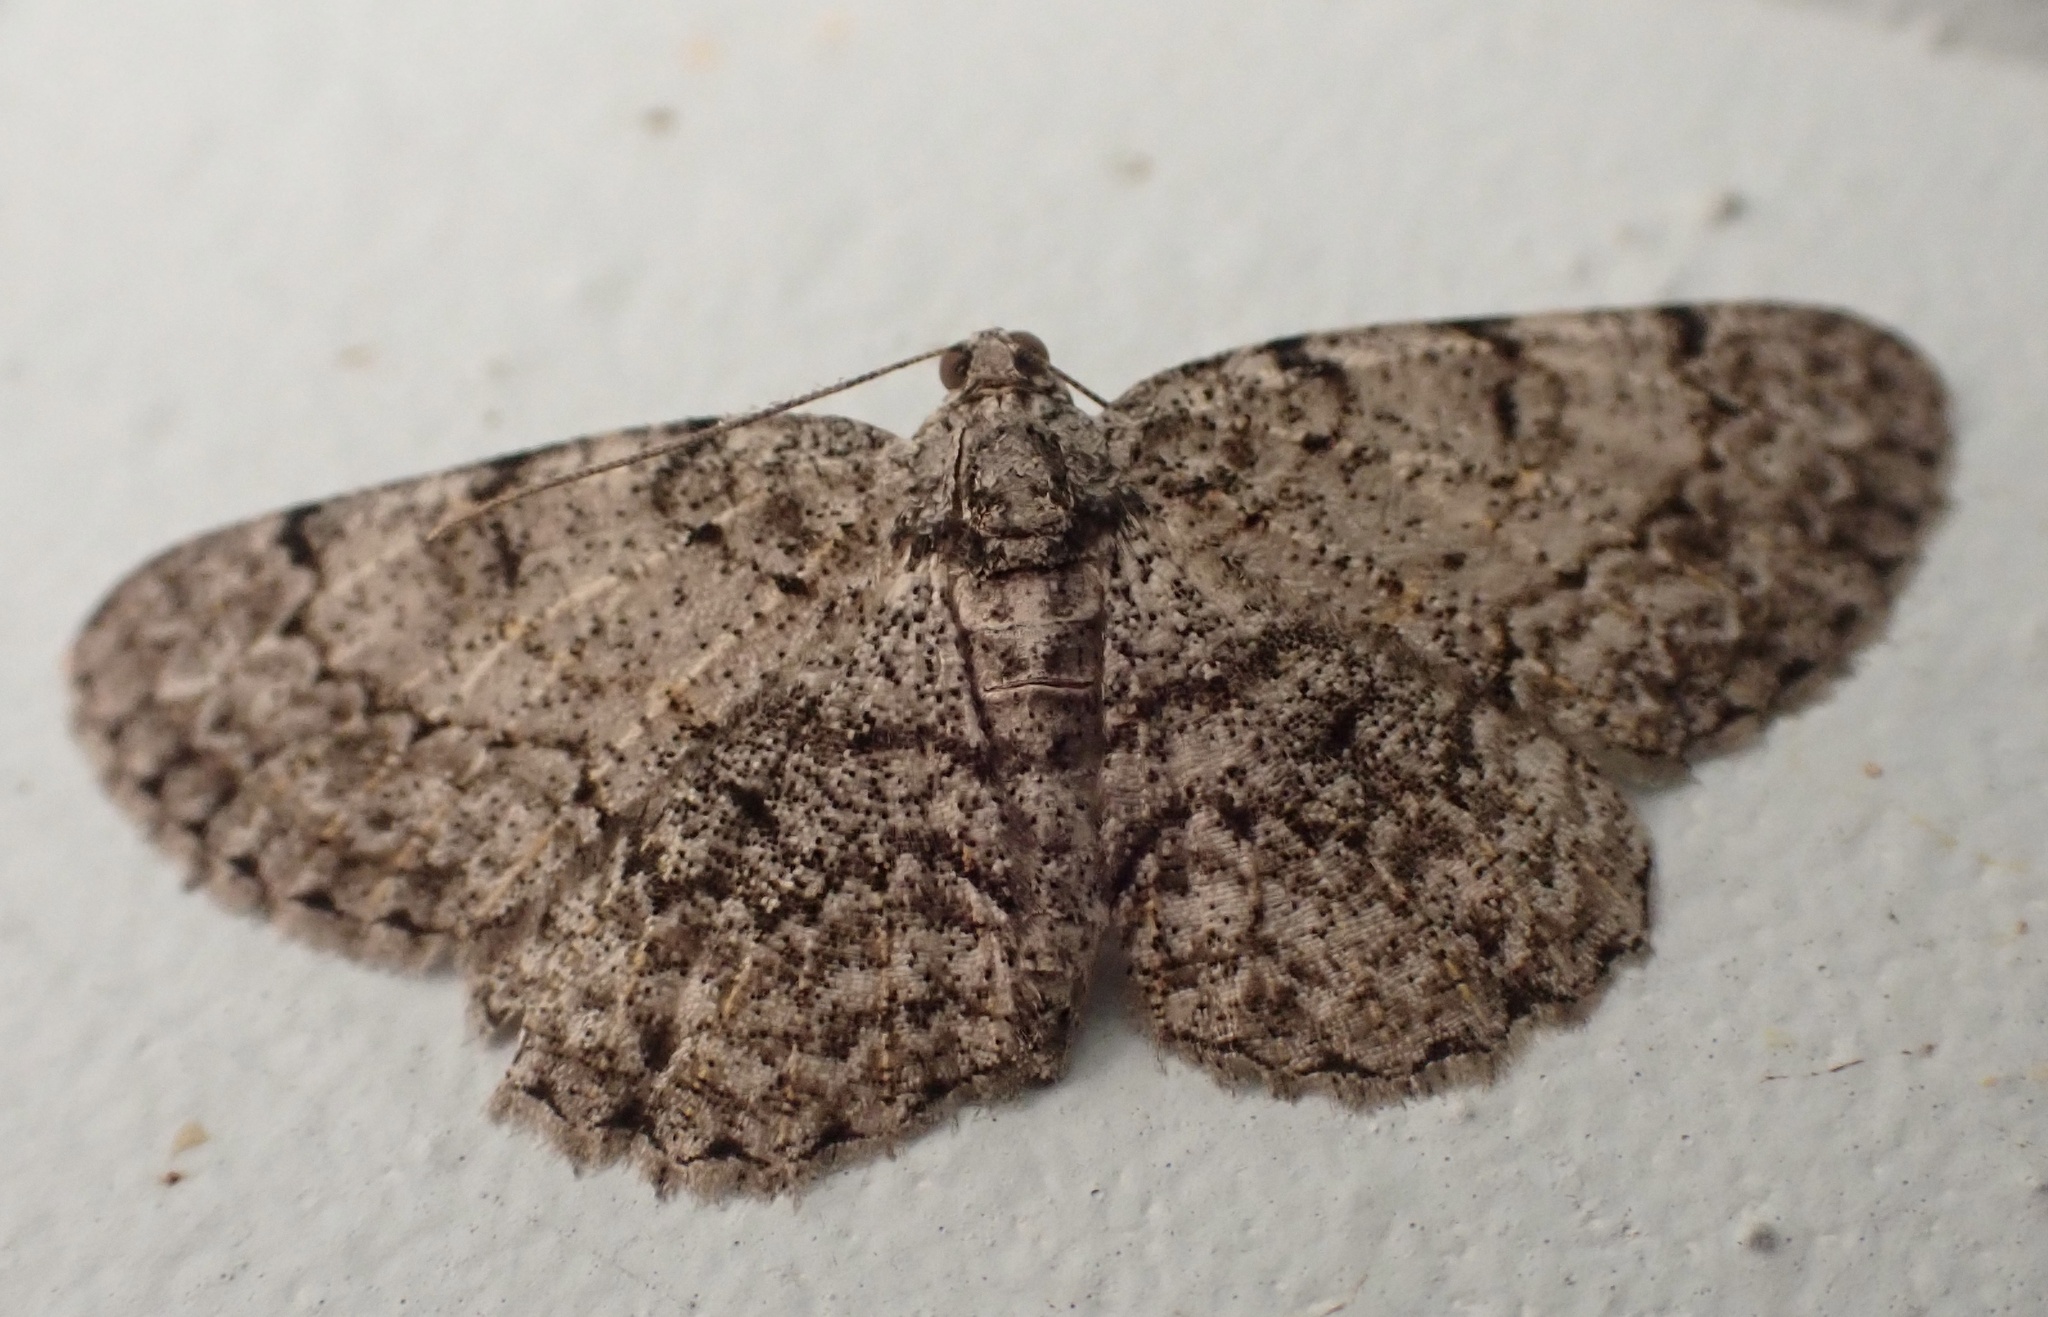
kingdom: Animalia
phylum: Arthropoda
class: Insecta
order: Lepidoptera
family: Geometridae
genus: Protoboarmia
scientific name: Protoboarmia porcelaria
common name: Porcelain gray
